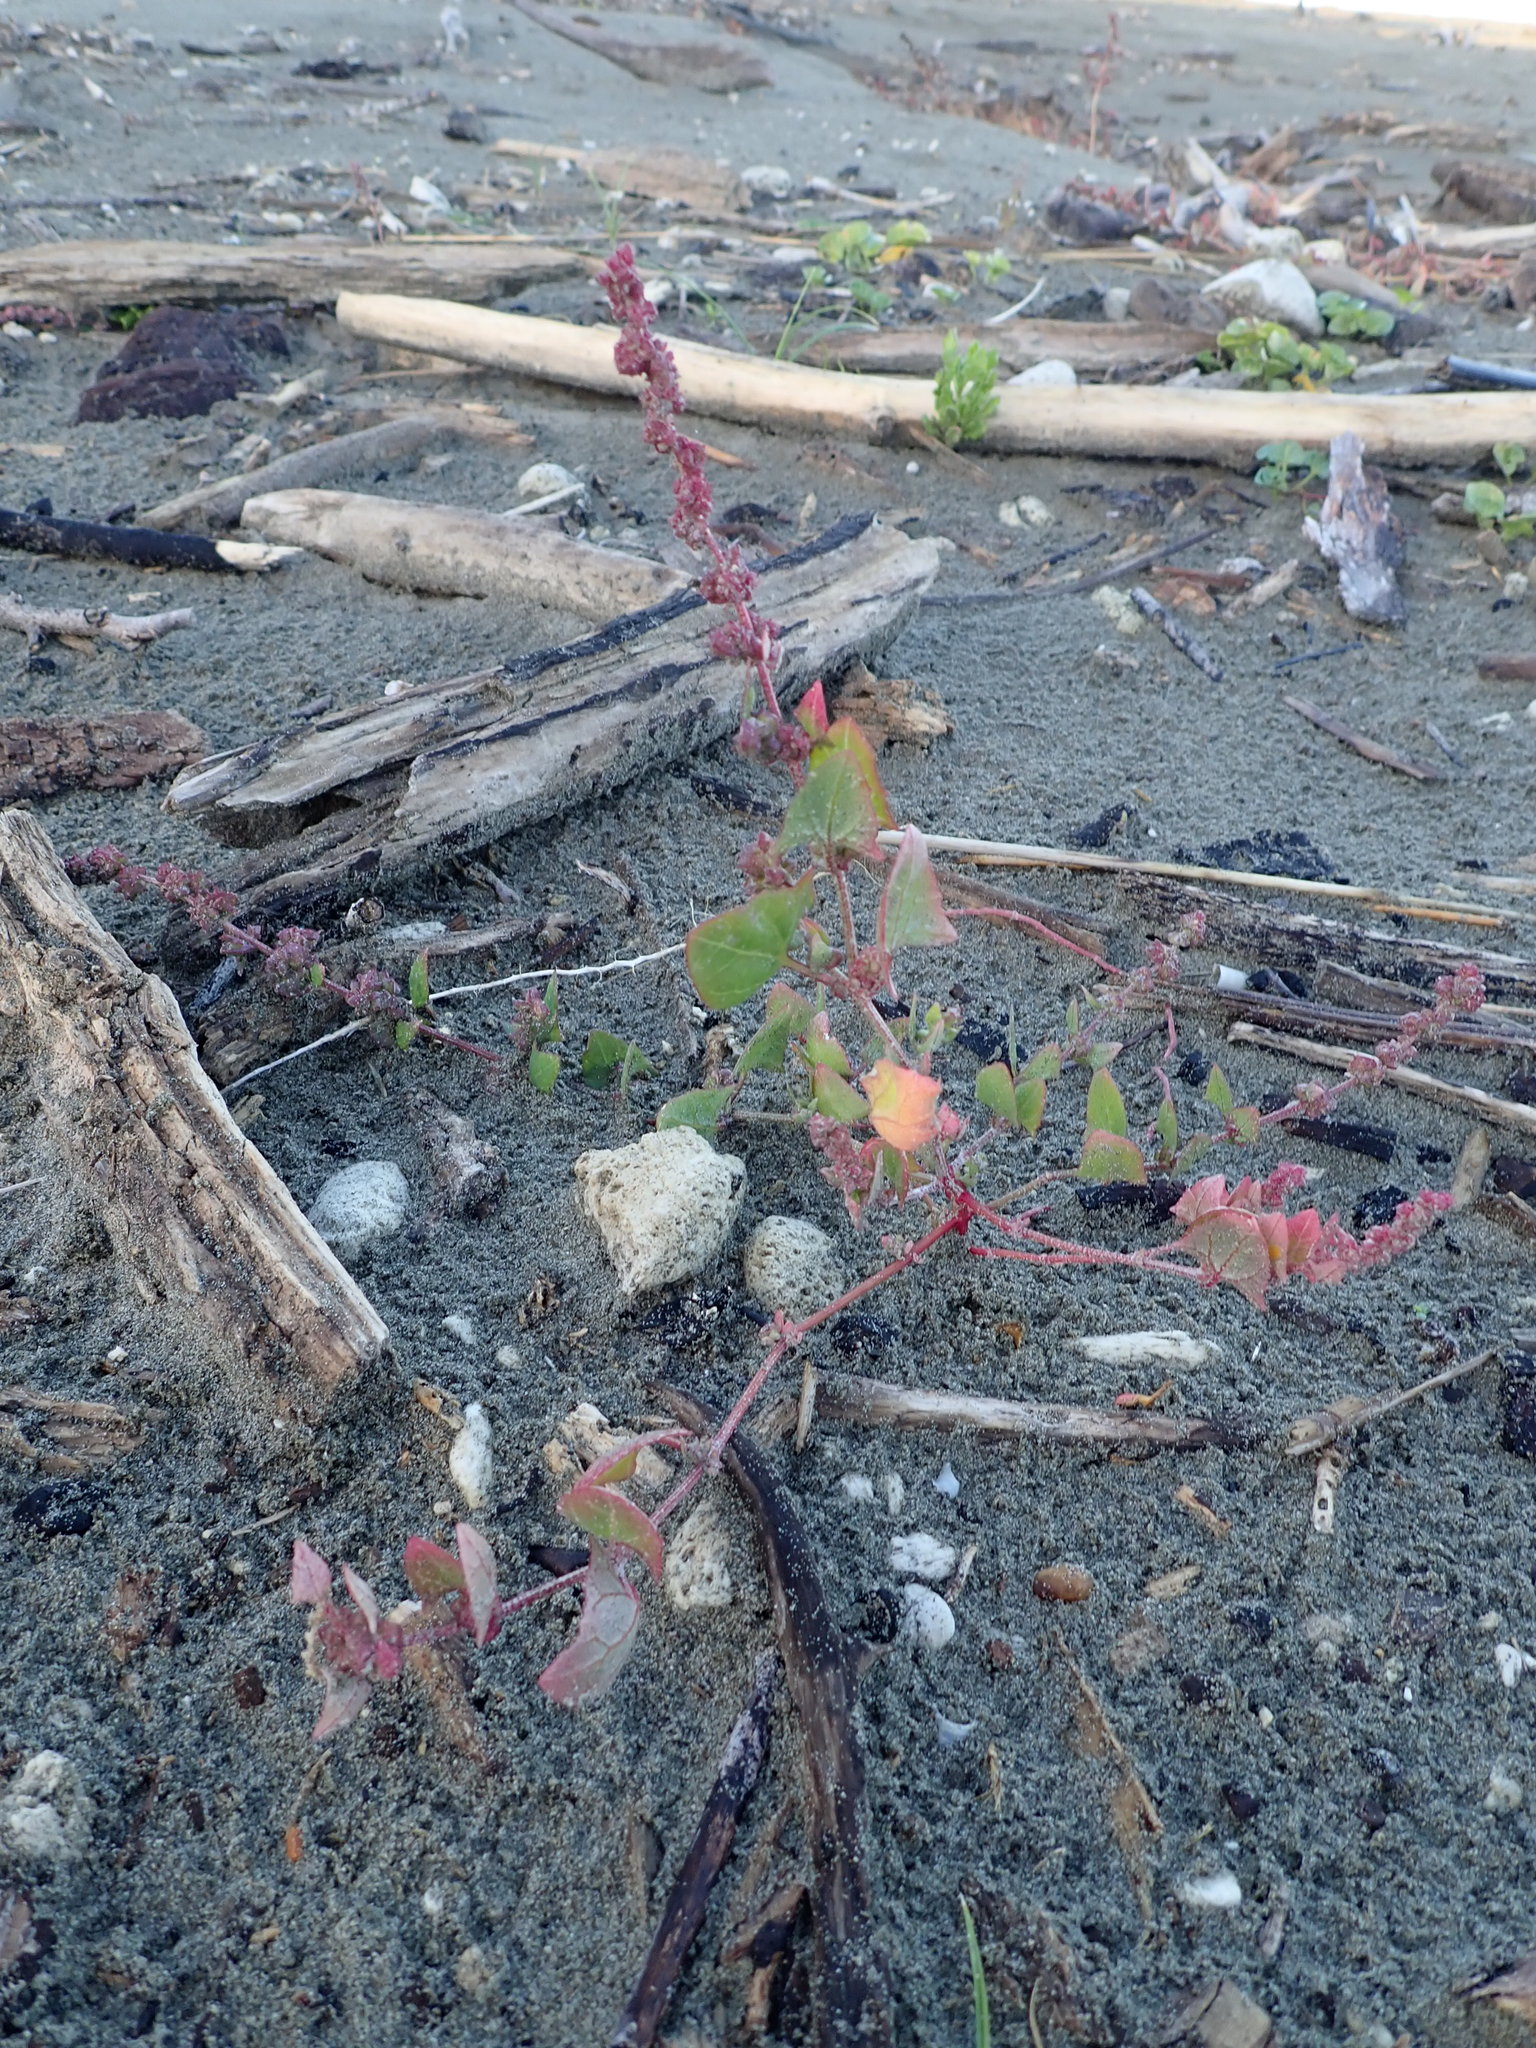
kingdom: Plantae
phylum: Tracheophyta
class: Magnoliopsida
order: Caryophyllales
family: Amaranthaceae
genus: Atriplex
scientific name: Atriplex prostrata
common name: Spear-leaved orache
